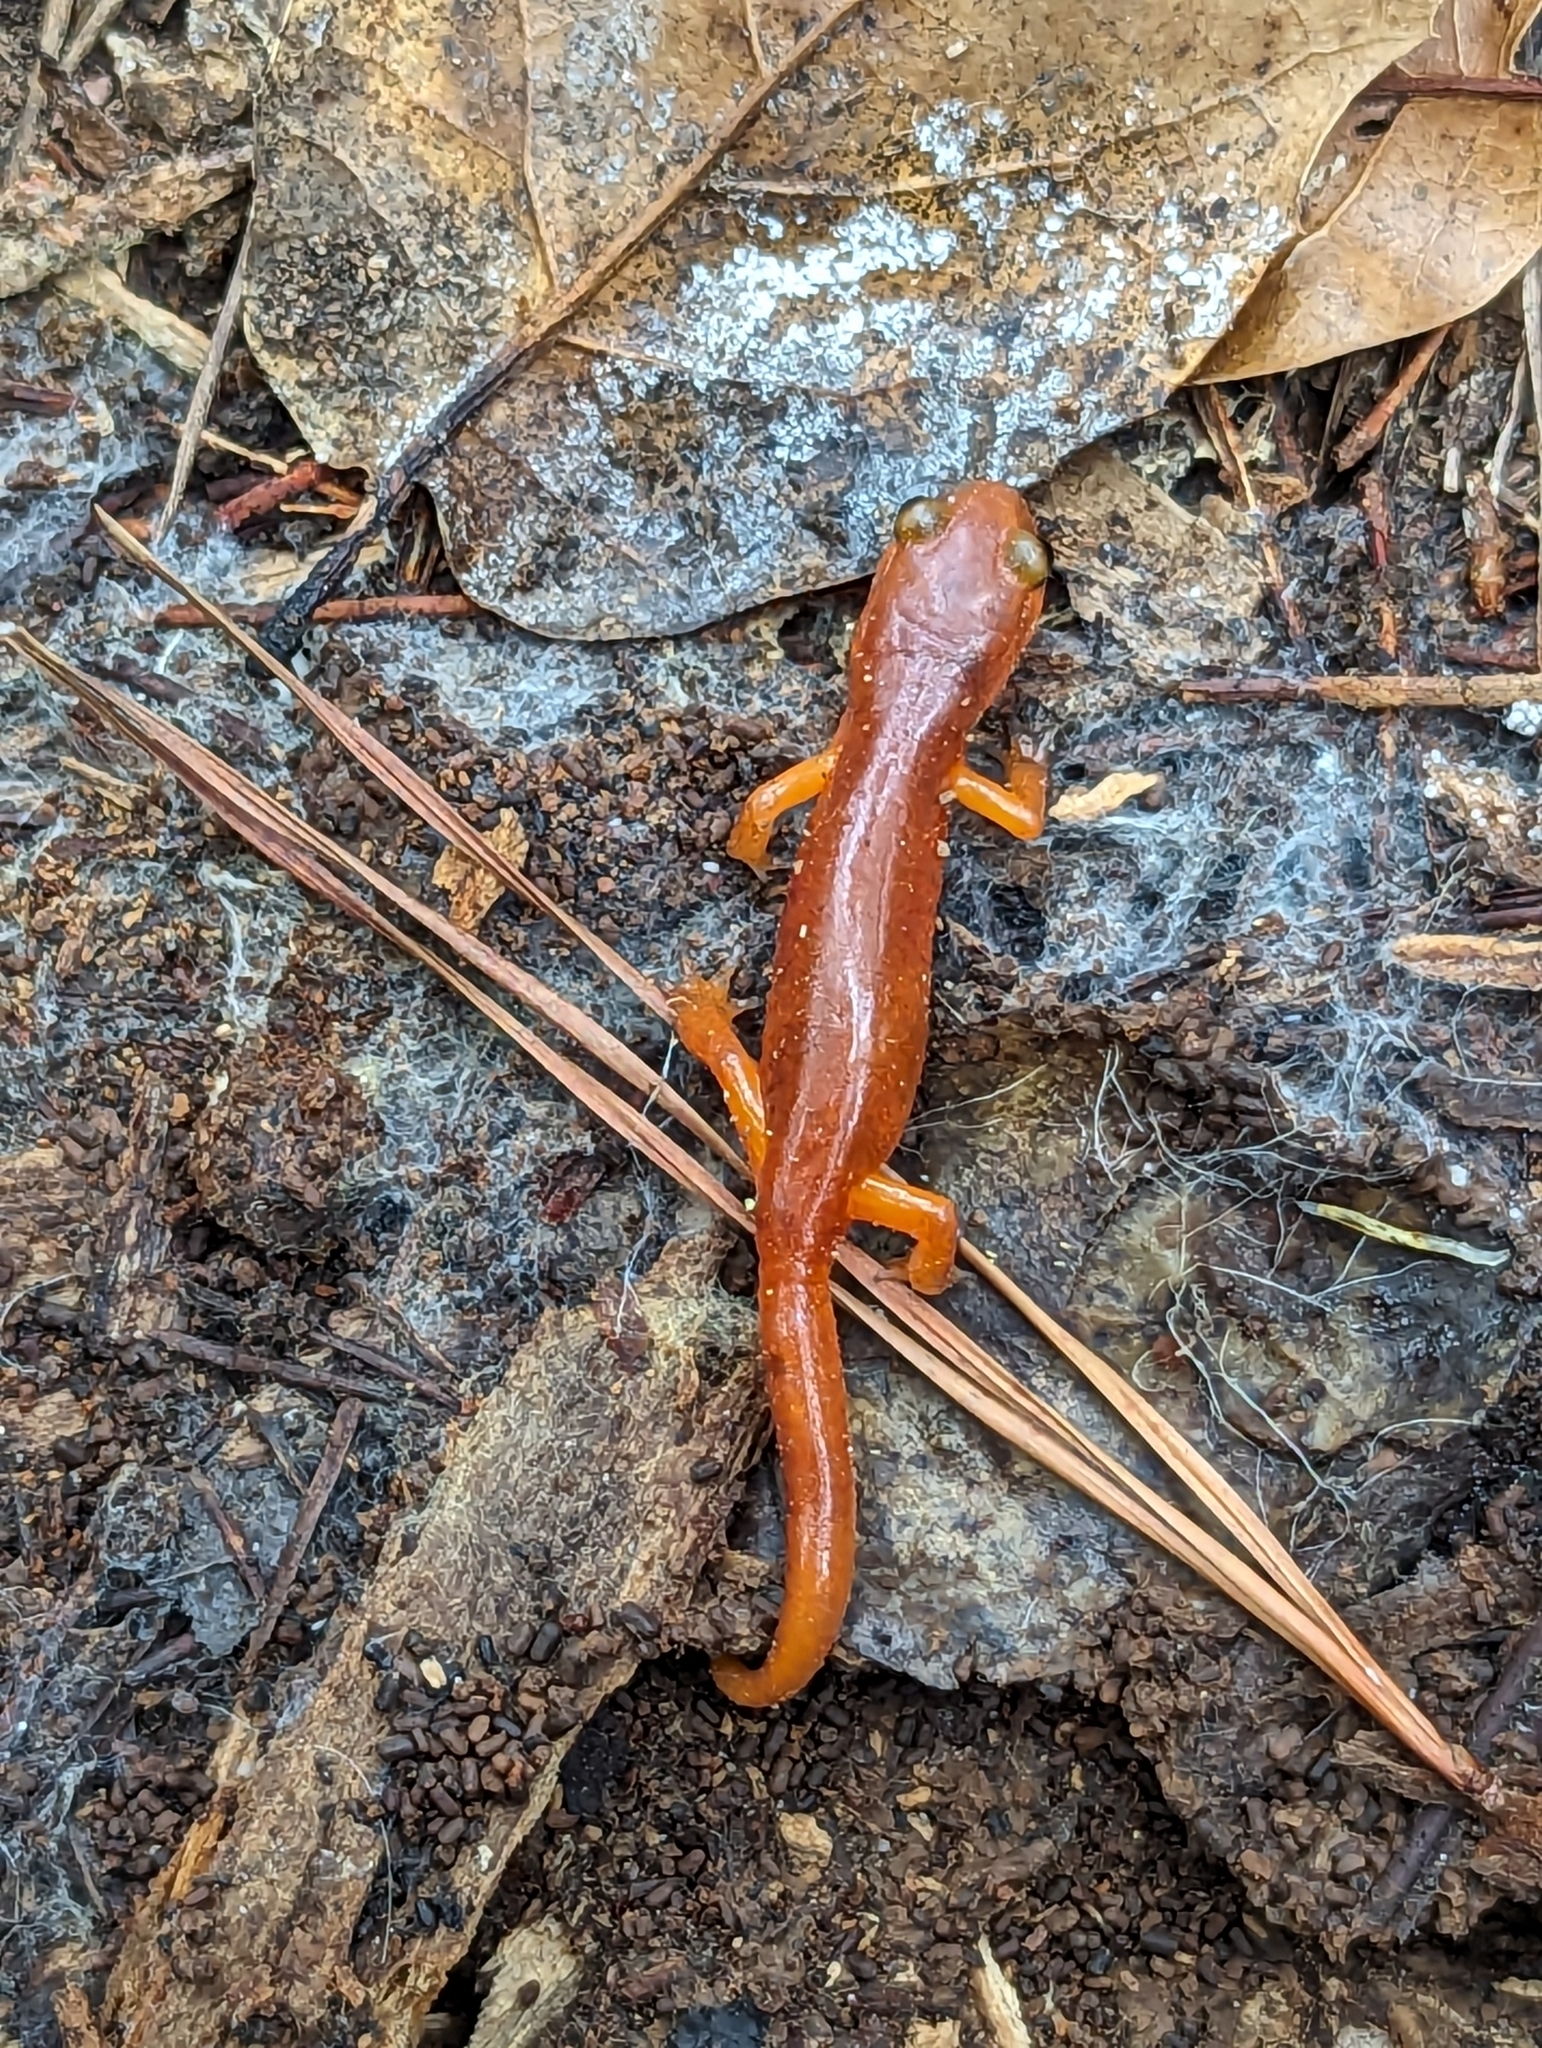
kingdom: Animalia
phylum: Chordata
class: Amphibia
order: Caudata
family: Plethodontidae
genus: Ensatina
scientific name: Ensatina eschscholtzii
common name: Ensatina
